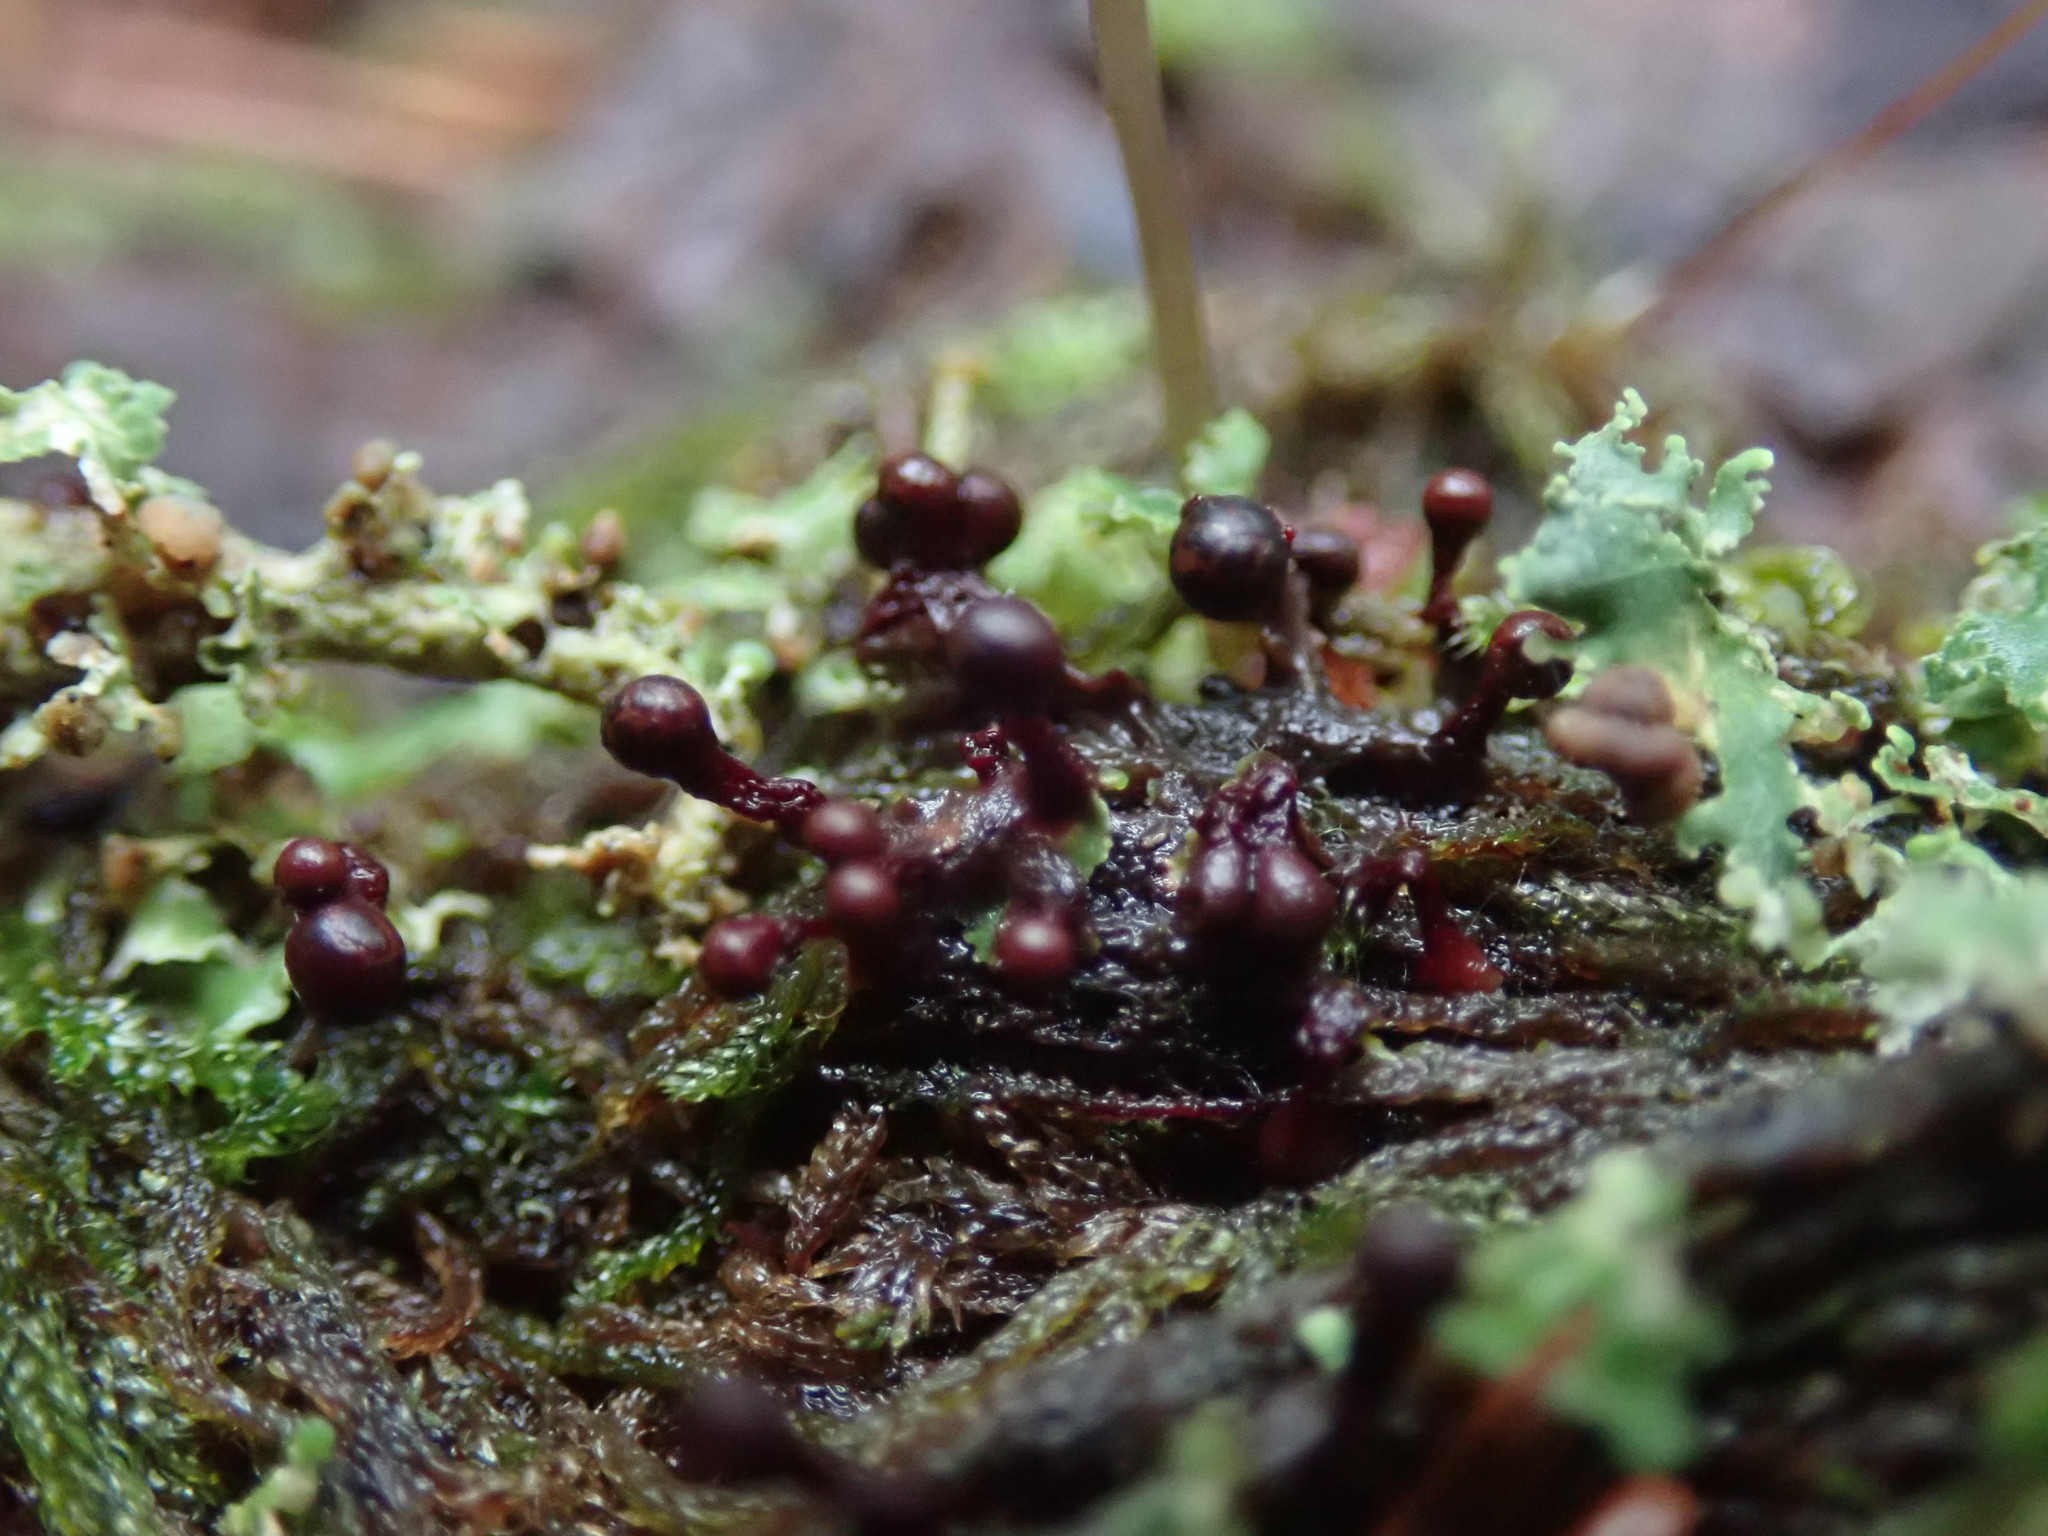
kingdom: Protozoa
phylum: Mycetozoa
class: Myxomycetes
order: Trichiales
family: Trichiaceae
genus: Trichia
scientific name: Trichia botrytis
